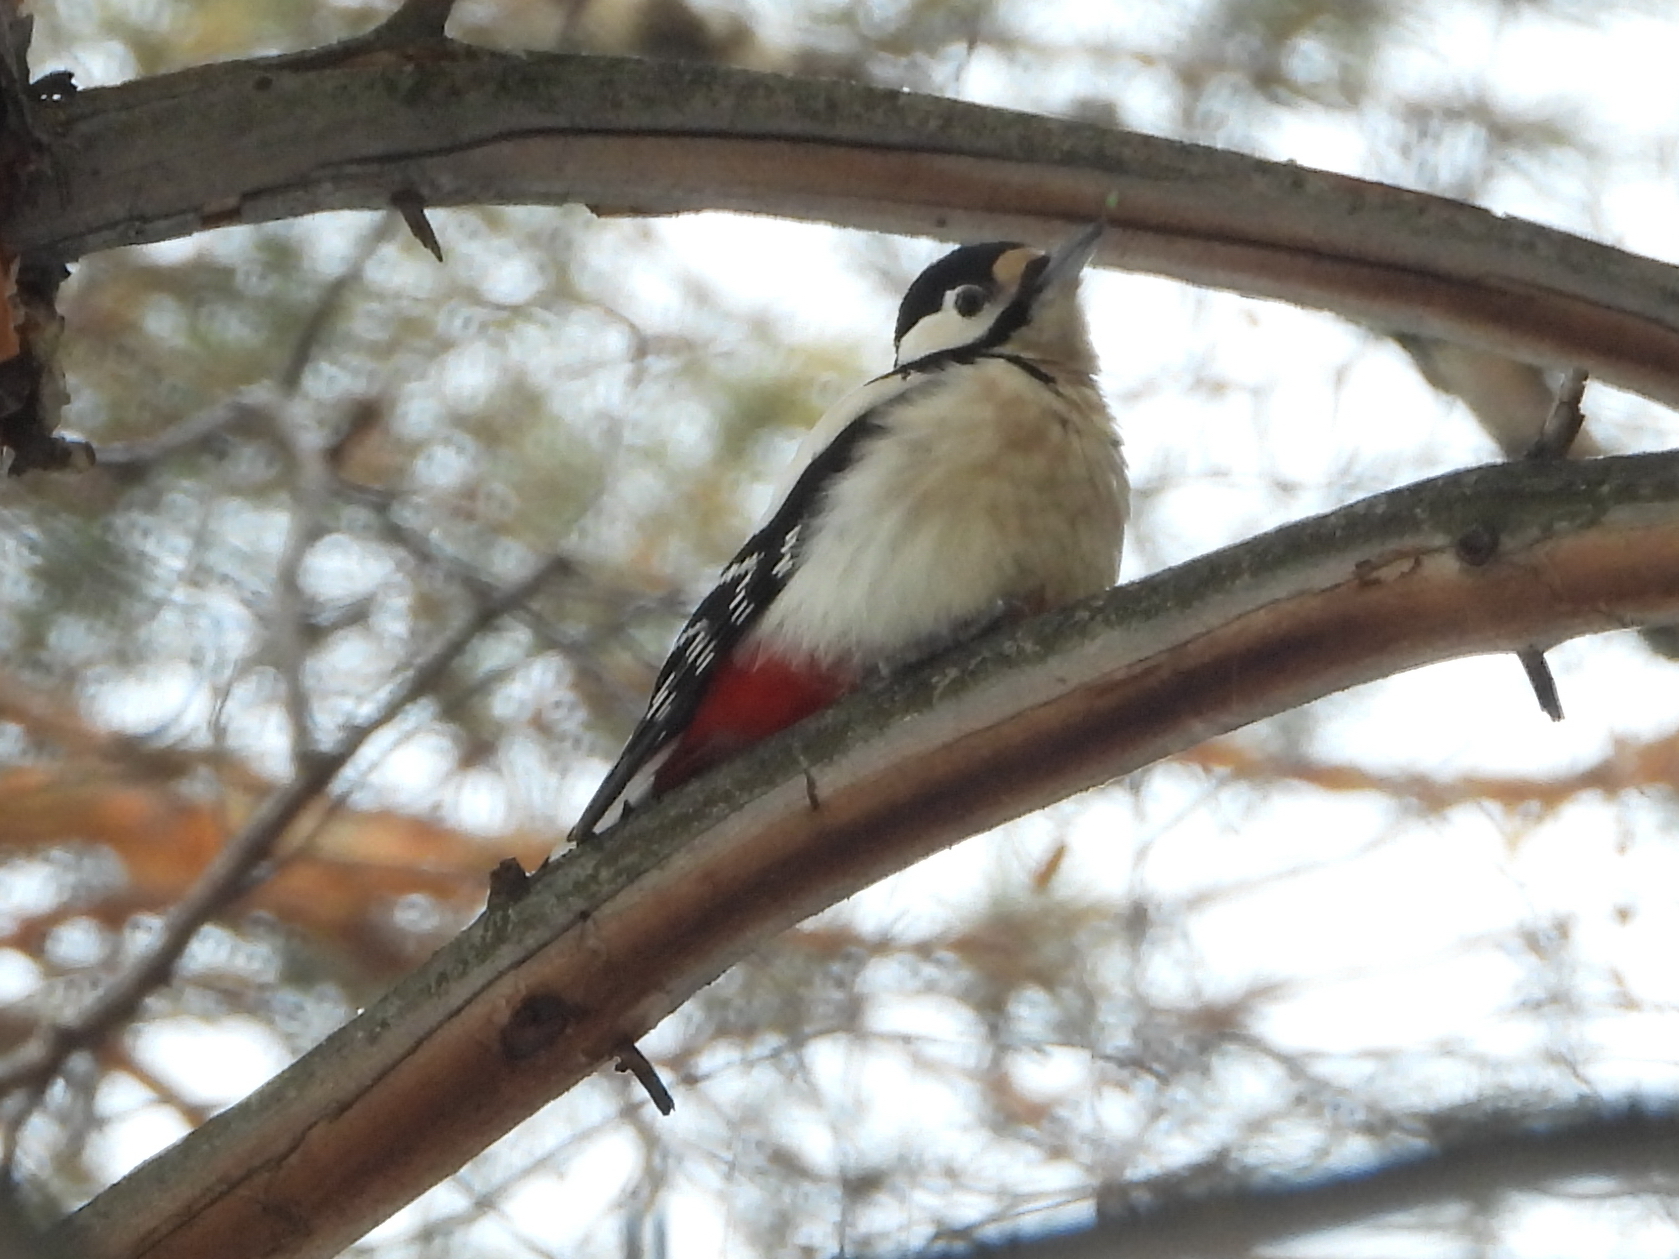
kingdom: Animalia
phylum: Chordata
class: Aves
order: Piciformes
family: Picidae
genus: Dendrocopos
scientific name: Dendrocopos major
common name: Great spotted woodpecker
